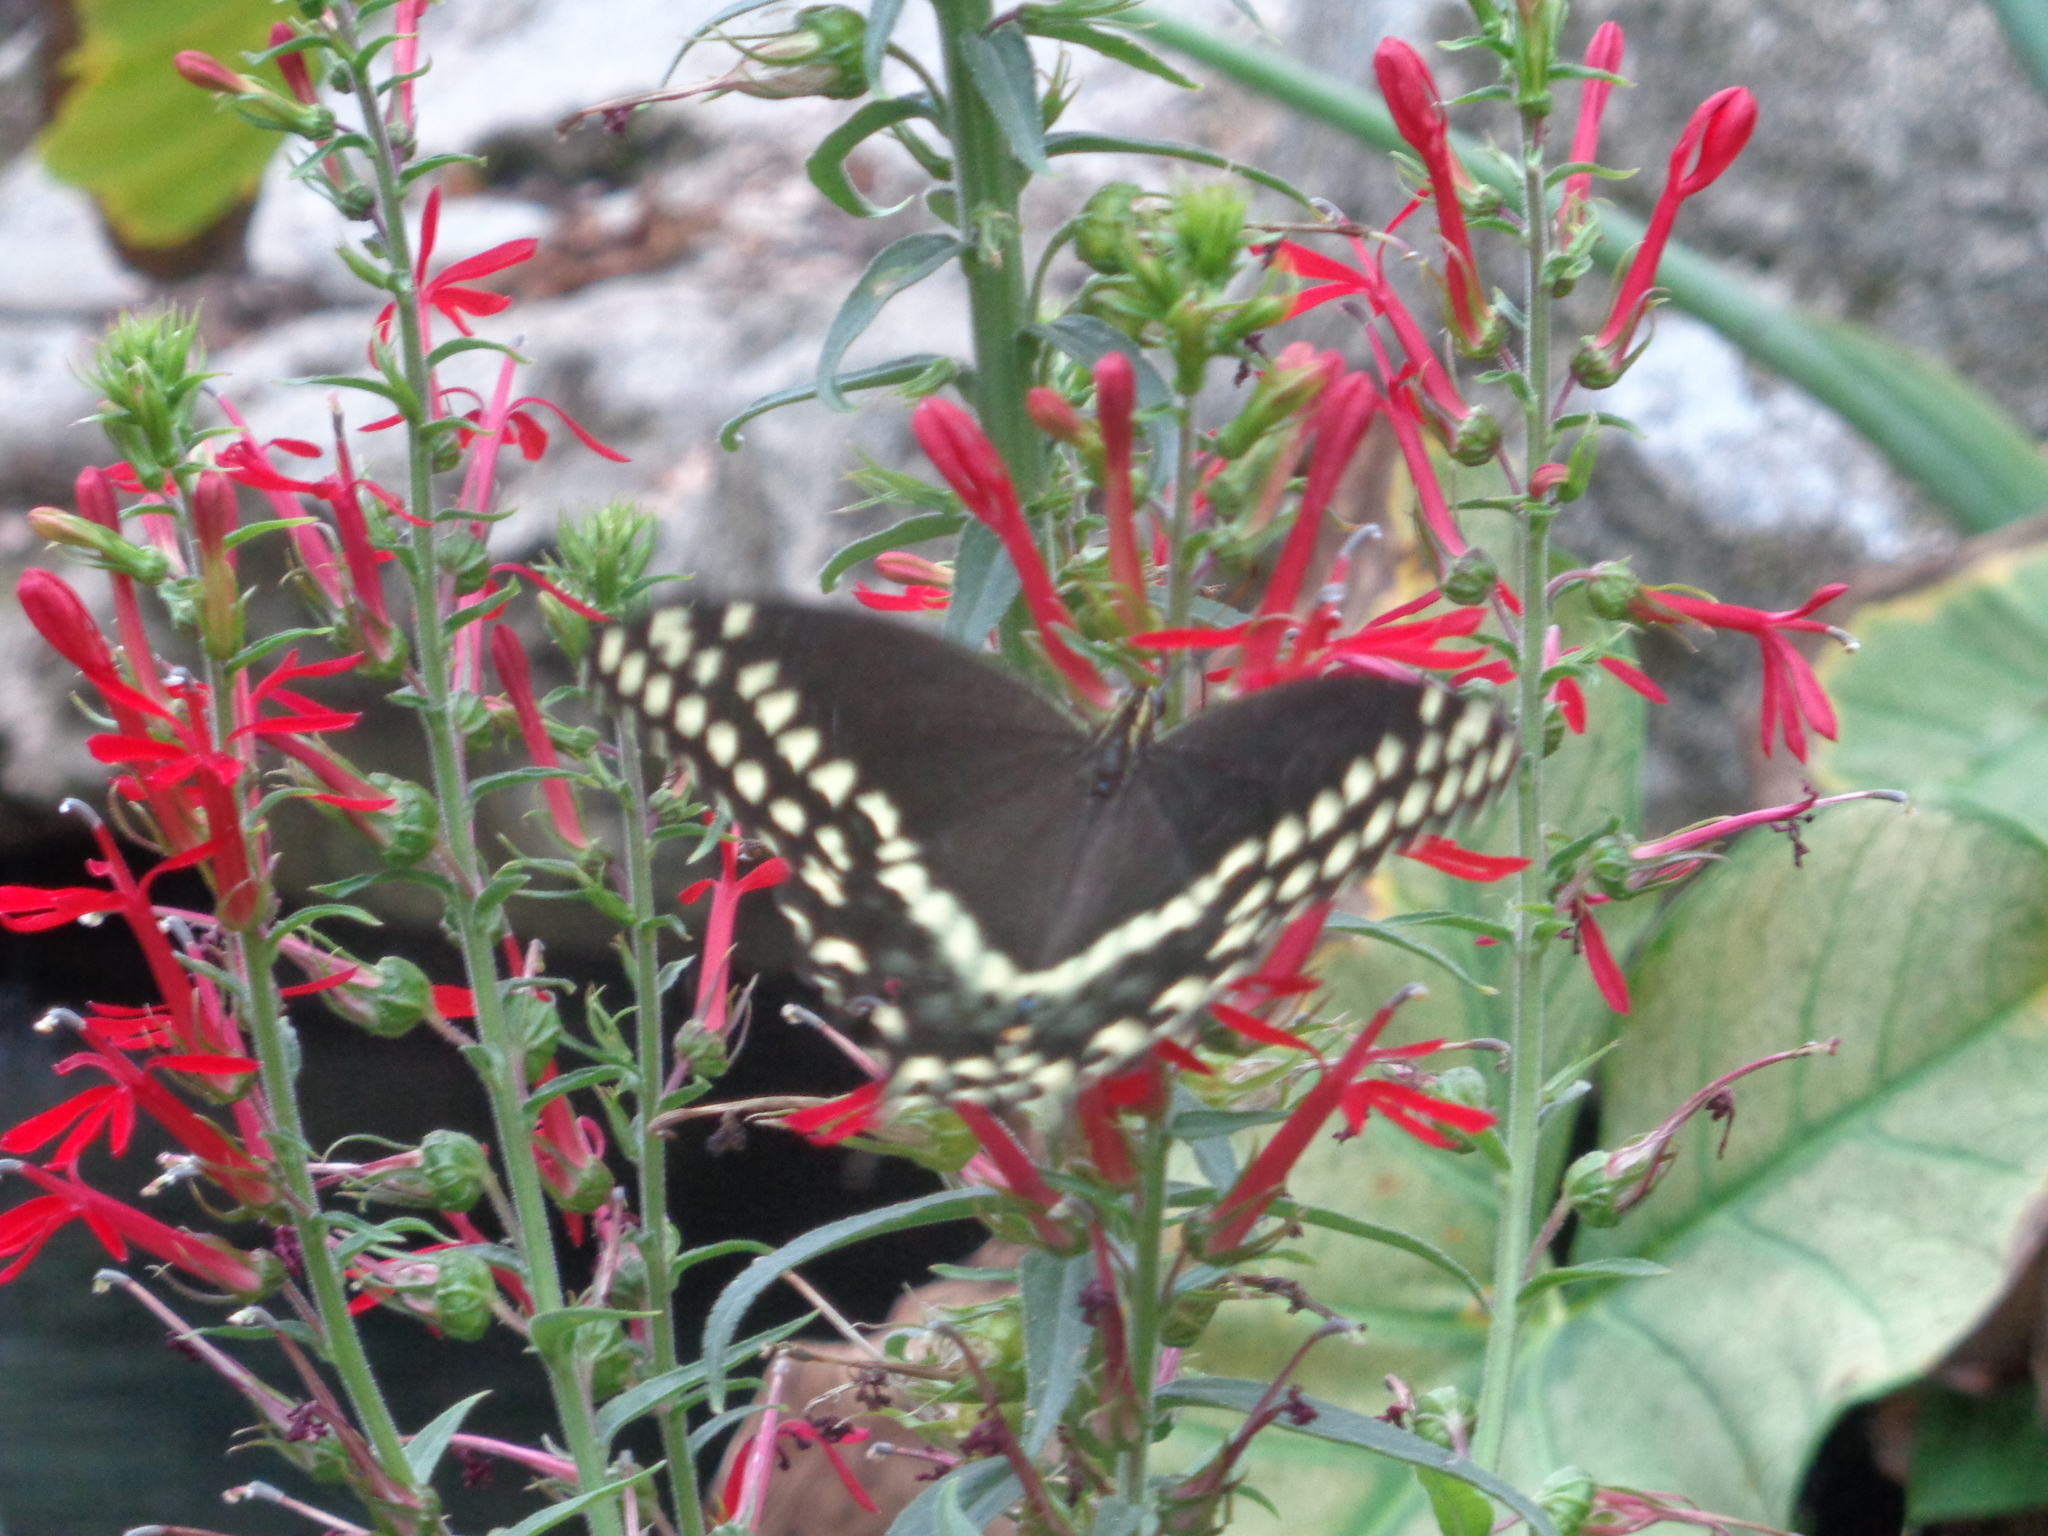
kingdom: Animalia
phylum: Arthropoda
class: Insecta
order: Lepidoptera
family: Papilionidae
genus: Papilio
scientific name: Papilio palamedes
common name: Palamedes swallowtail
